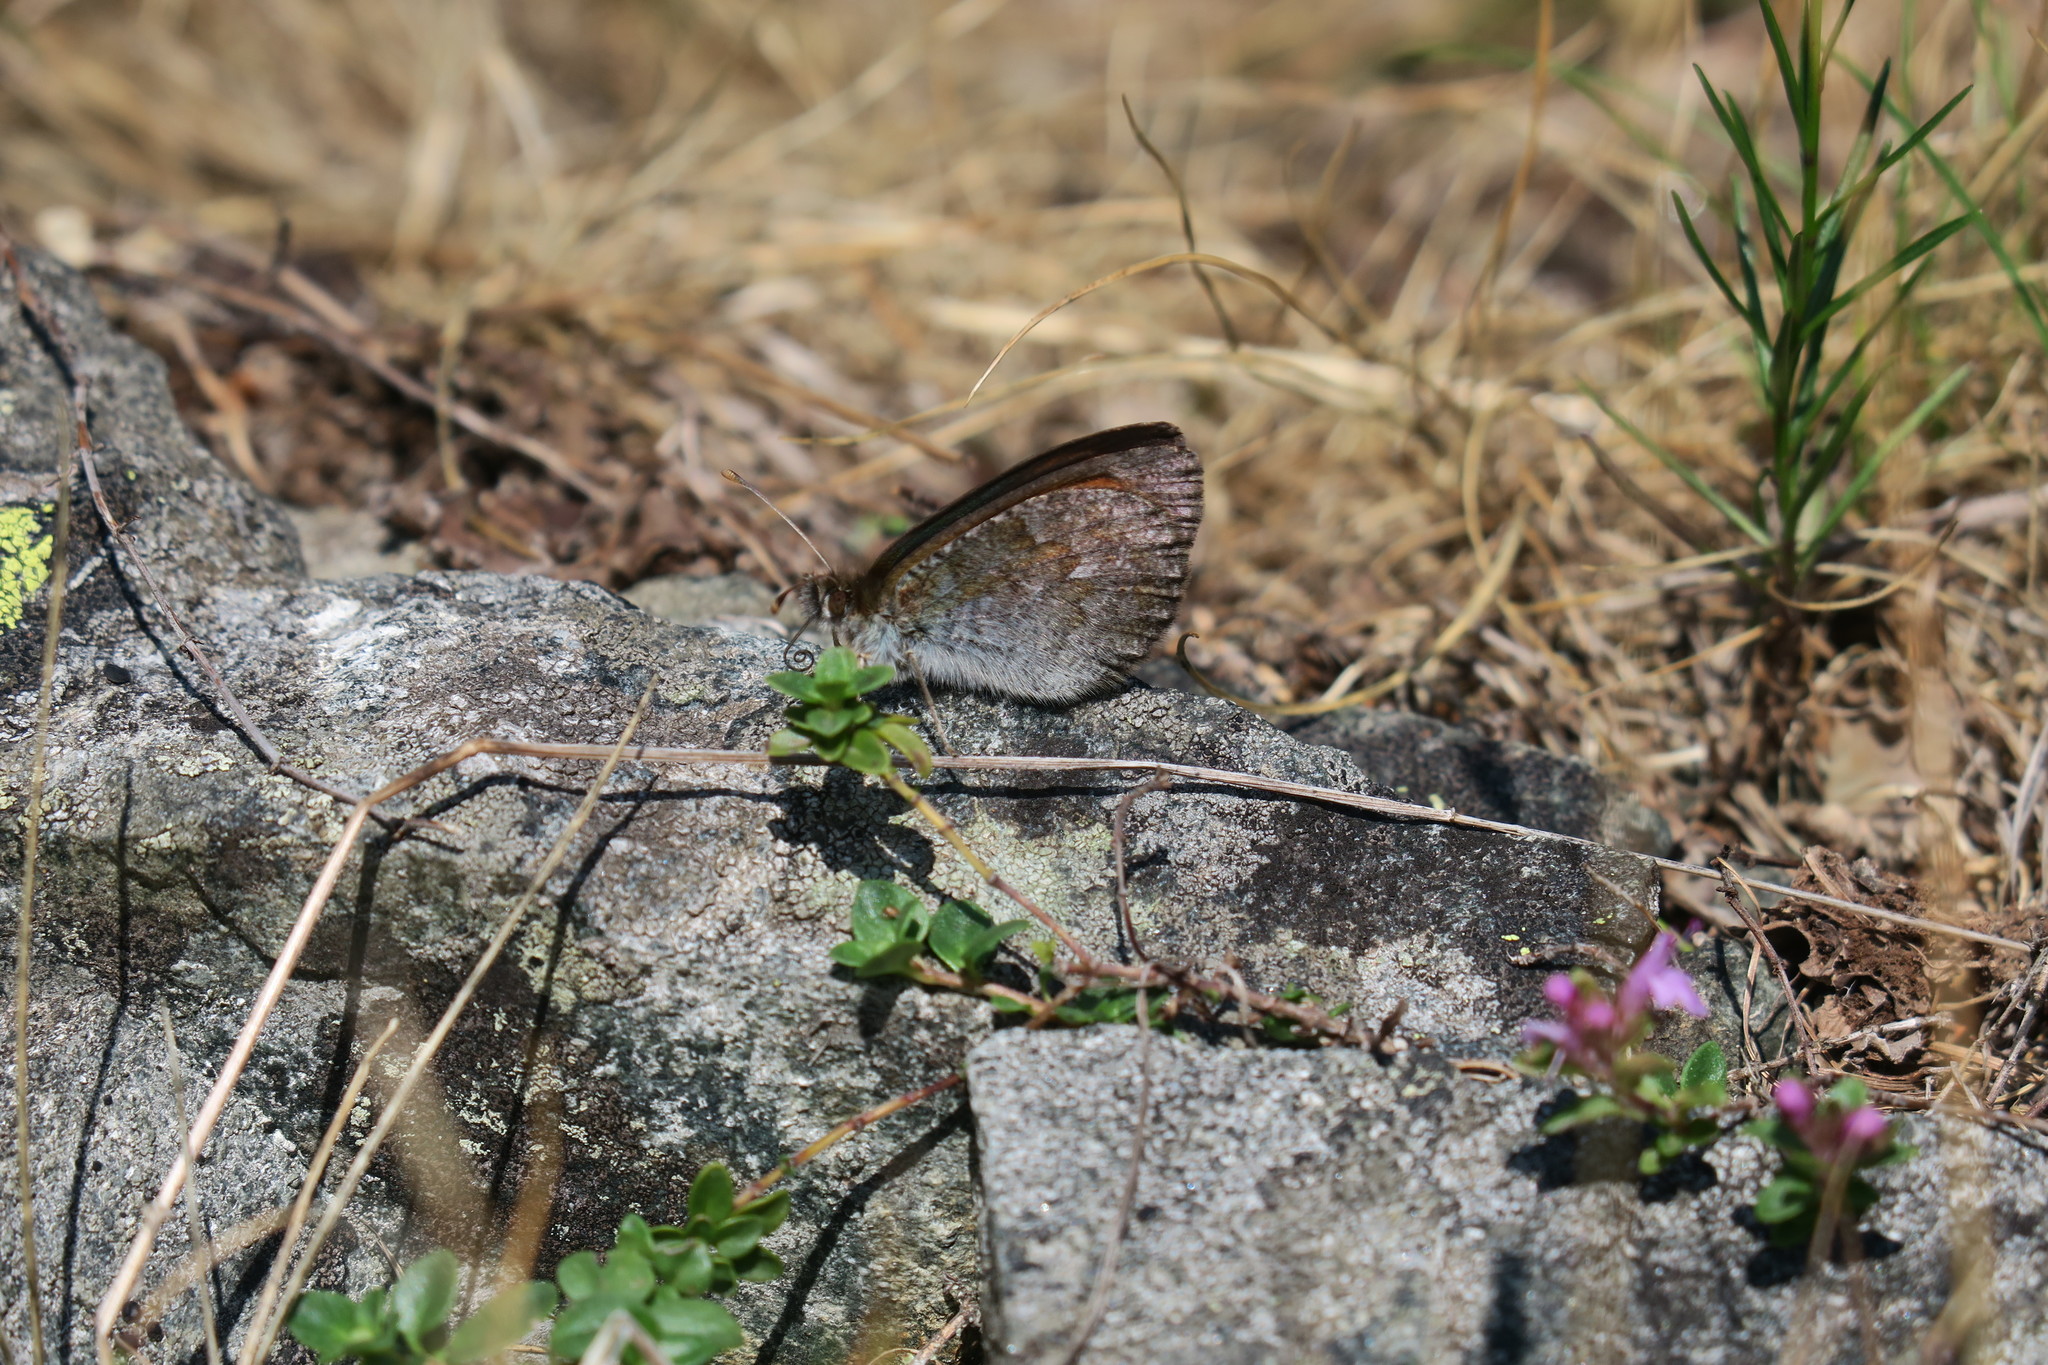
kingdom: Animalia
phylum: Arthropoda
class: Insecta
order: Lepidoptera
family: Nymphalidae
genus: Erebia
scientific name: Erebia cassioides
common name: Common brassy ringlet
